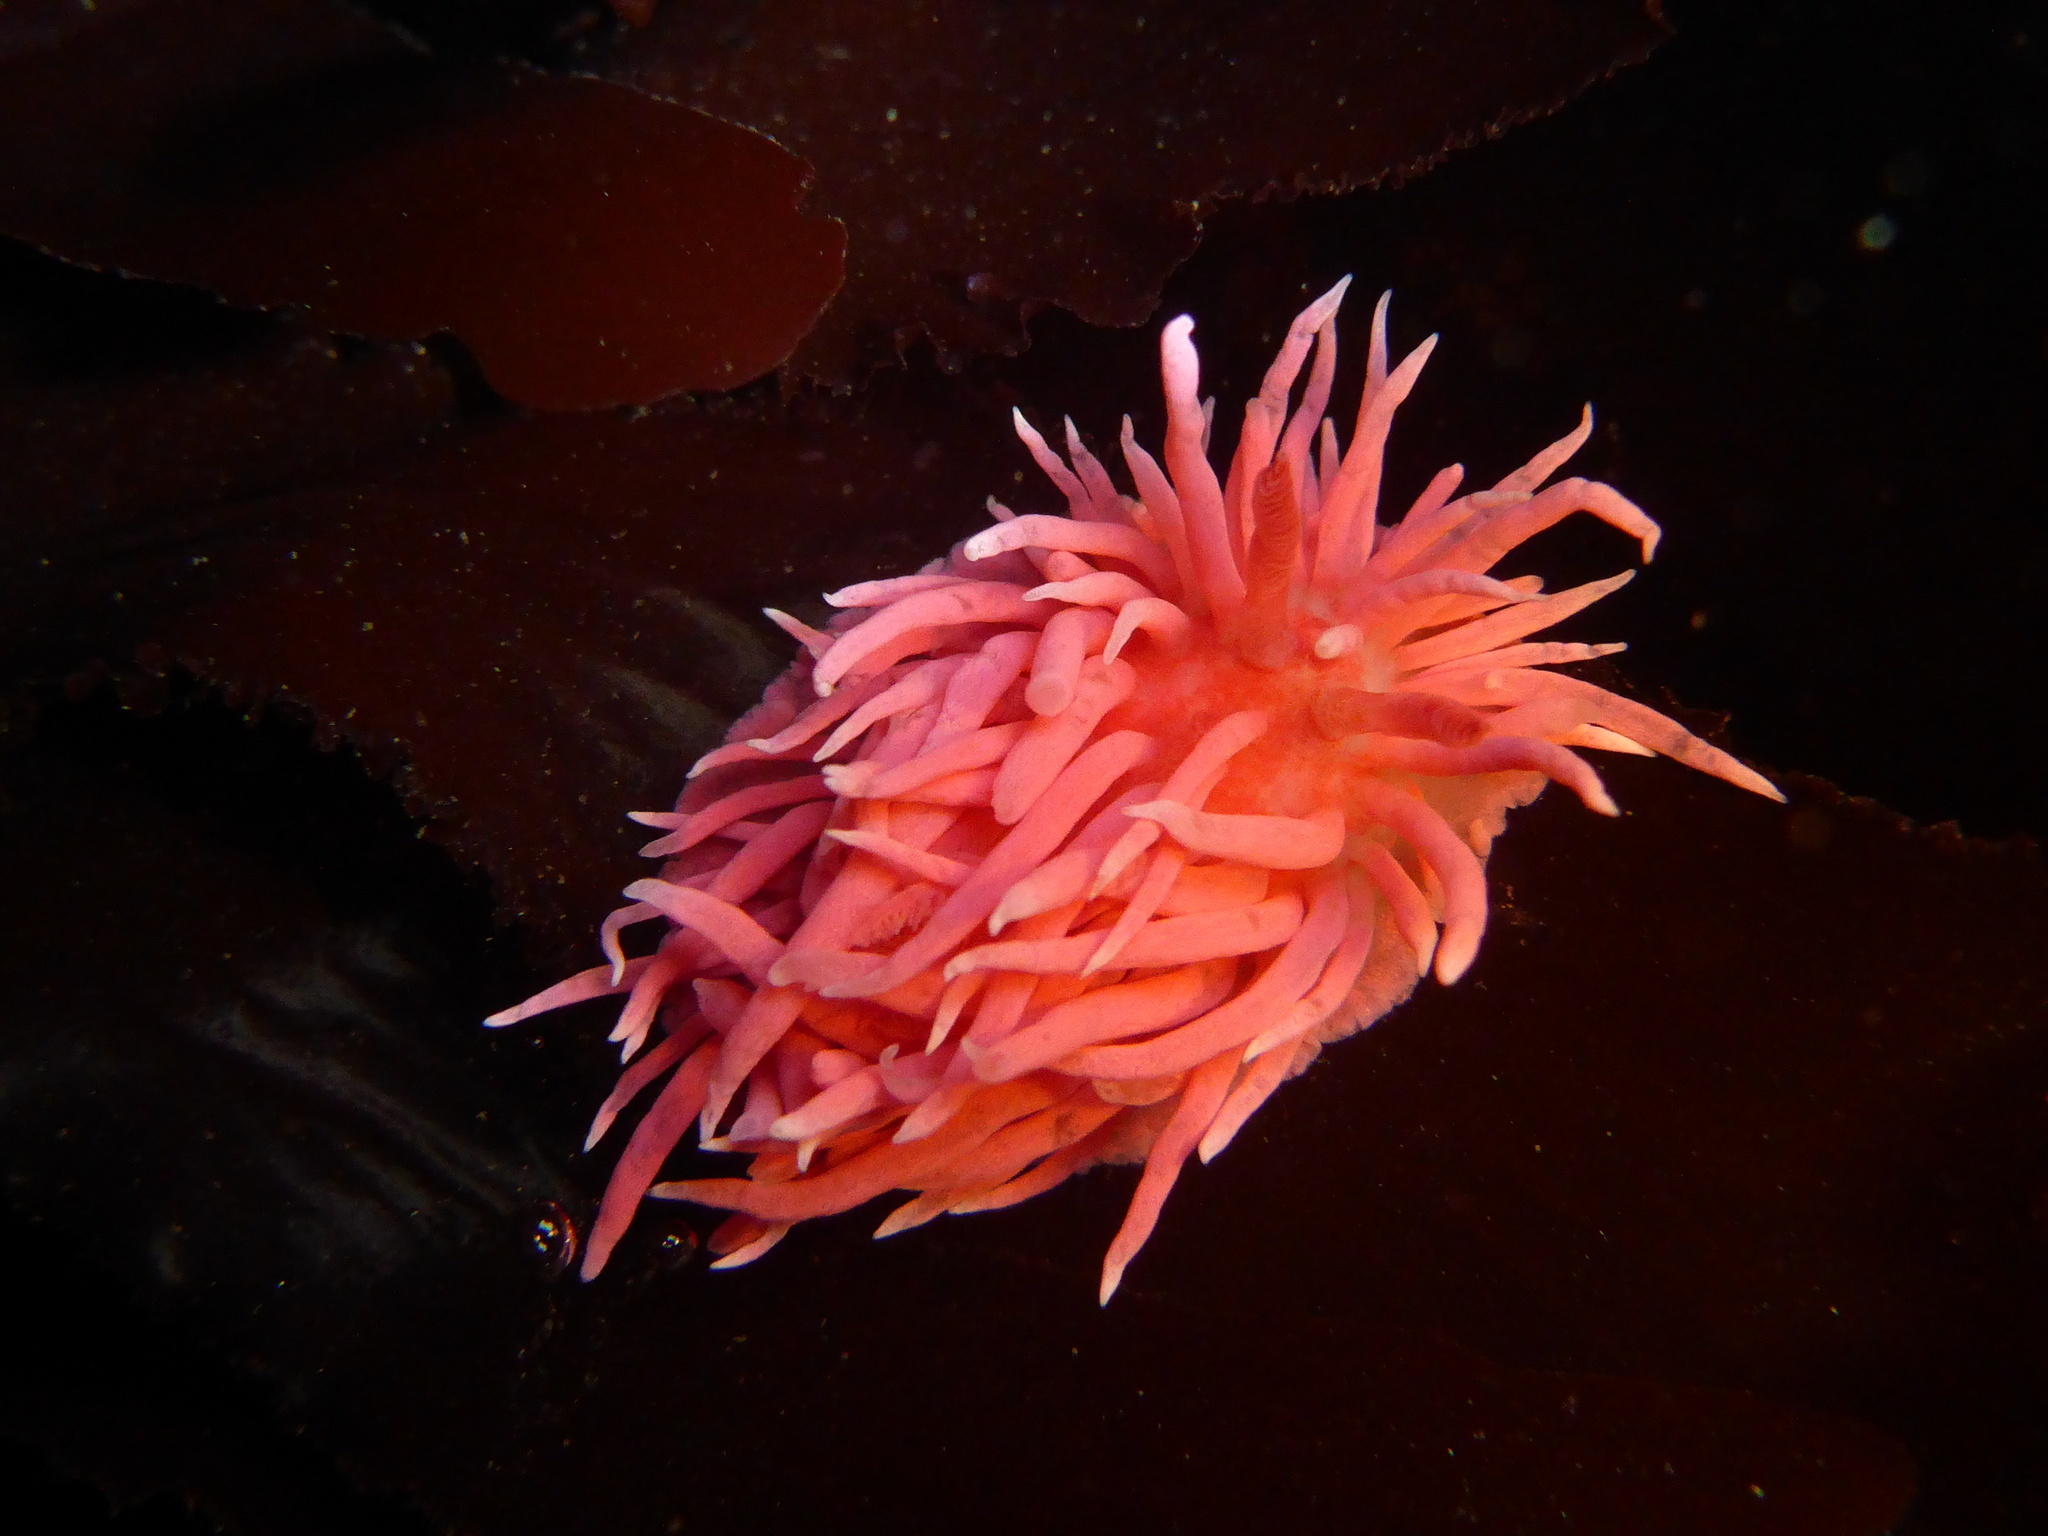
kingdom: Animalia
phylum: Mollusca
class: Gastropoda
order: Nudibranchia
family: Goniodorididae
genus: Okenia
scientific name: Okenia
